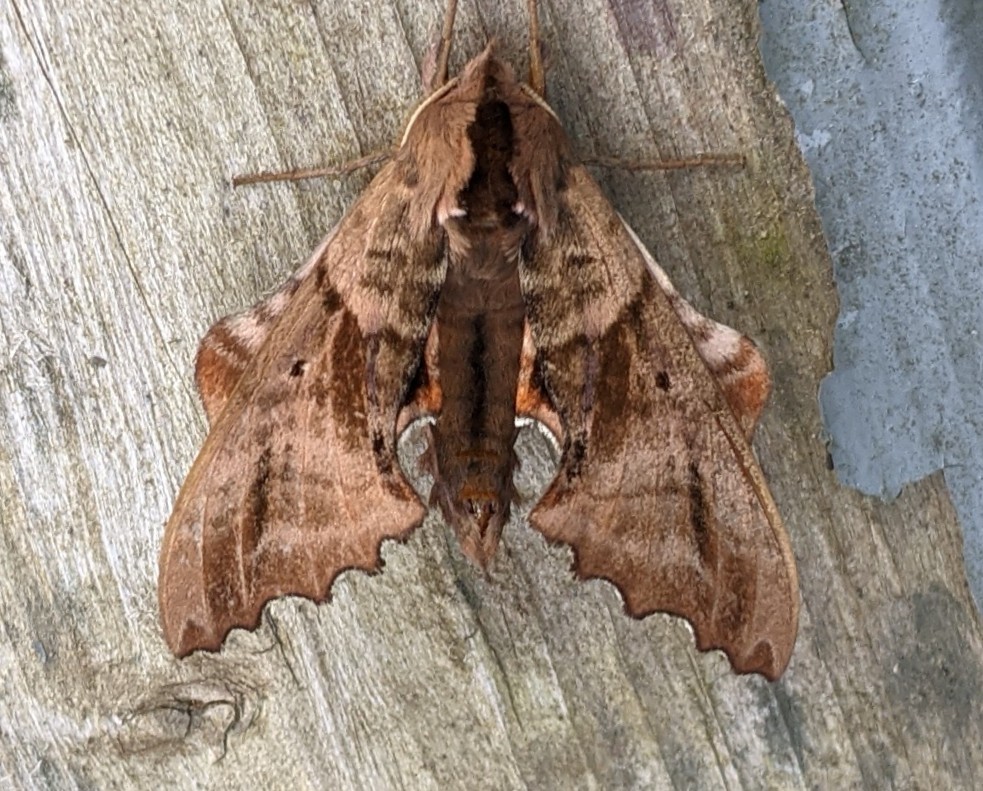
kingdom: Animalia
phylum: Arthropoda
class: Insecta
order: Lepidoptera
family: Sphingidae
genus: Paonias
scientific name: Paonias excaecata
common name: Blind-eyed sphinx
